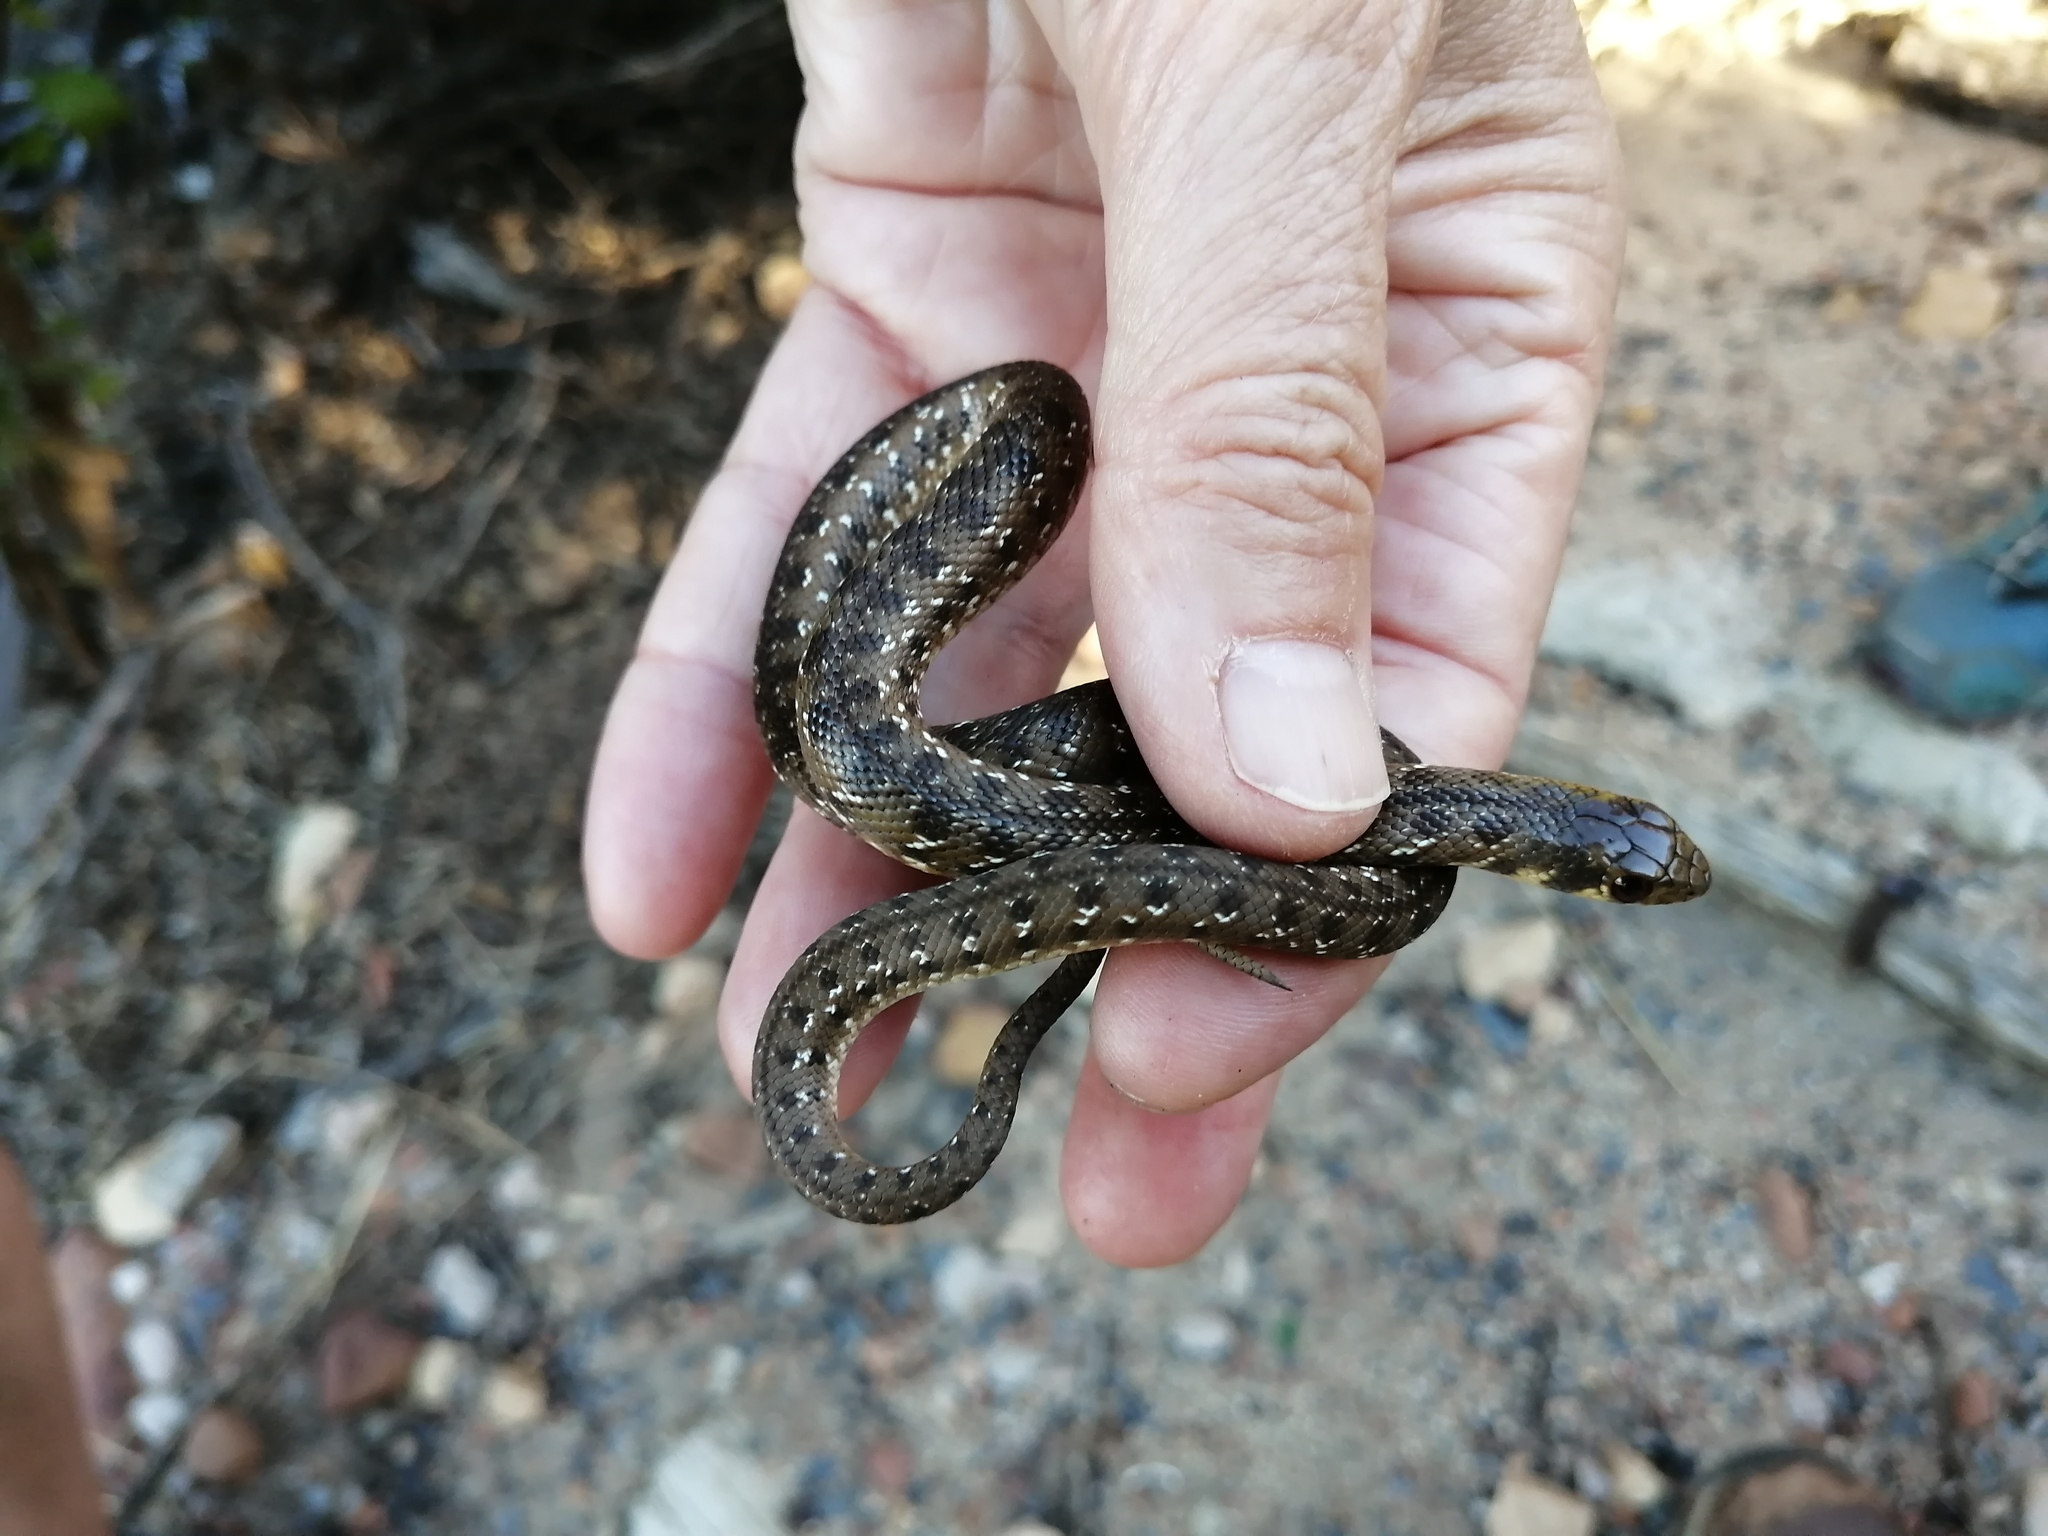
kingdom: Animalia
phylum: Chordata
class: Squamata
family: Pseudaspididae
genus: Pseudaspis
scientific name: Pseudaspis cana
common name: Mole snake
